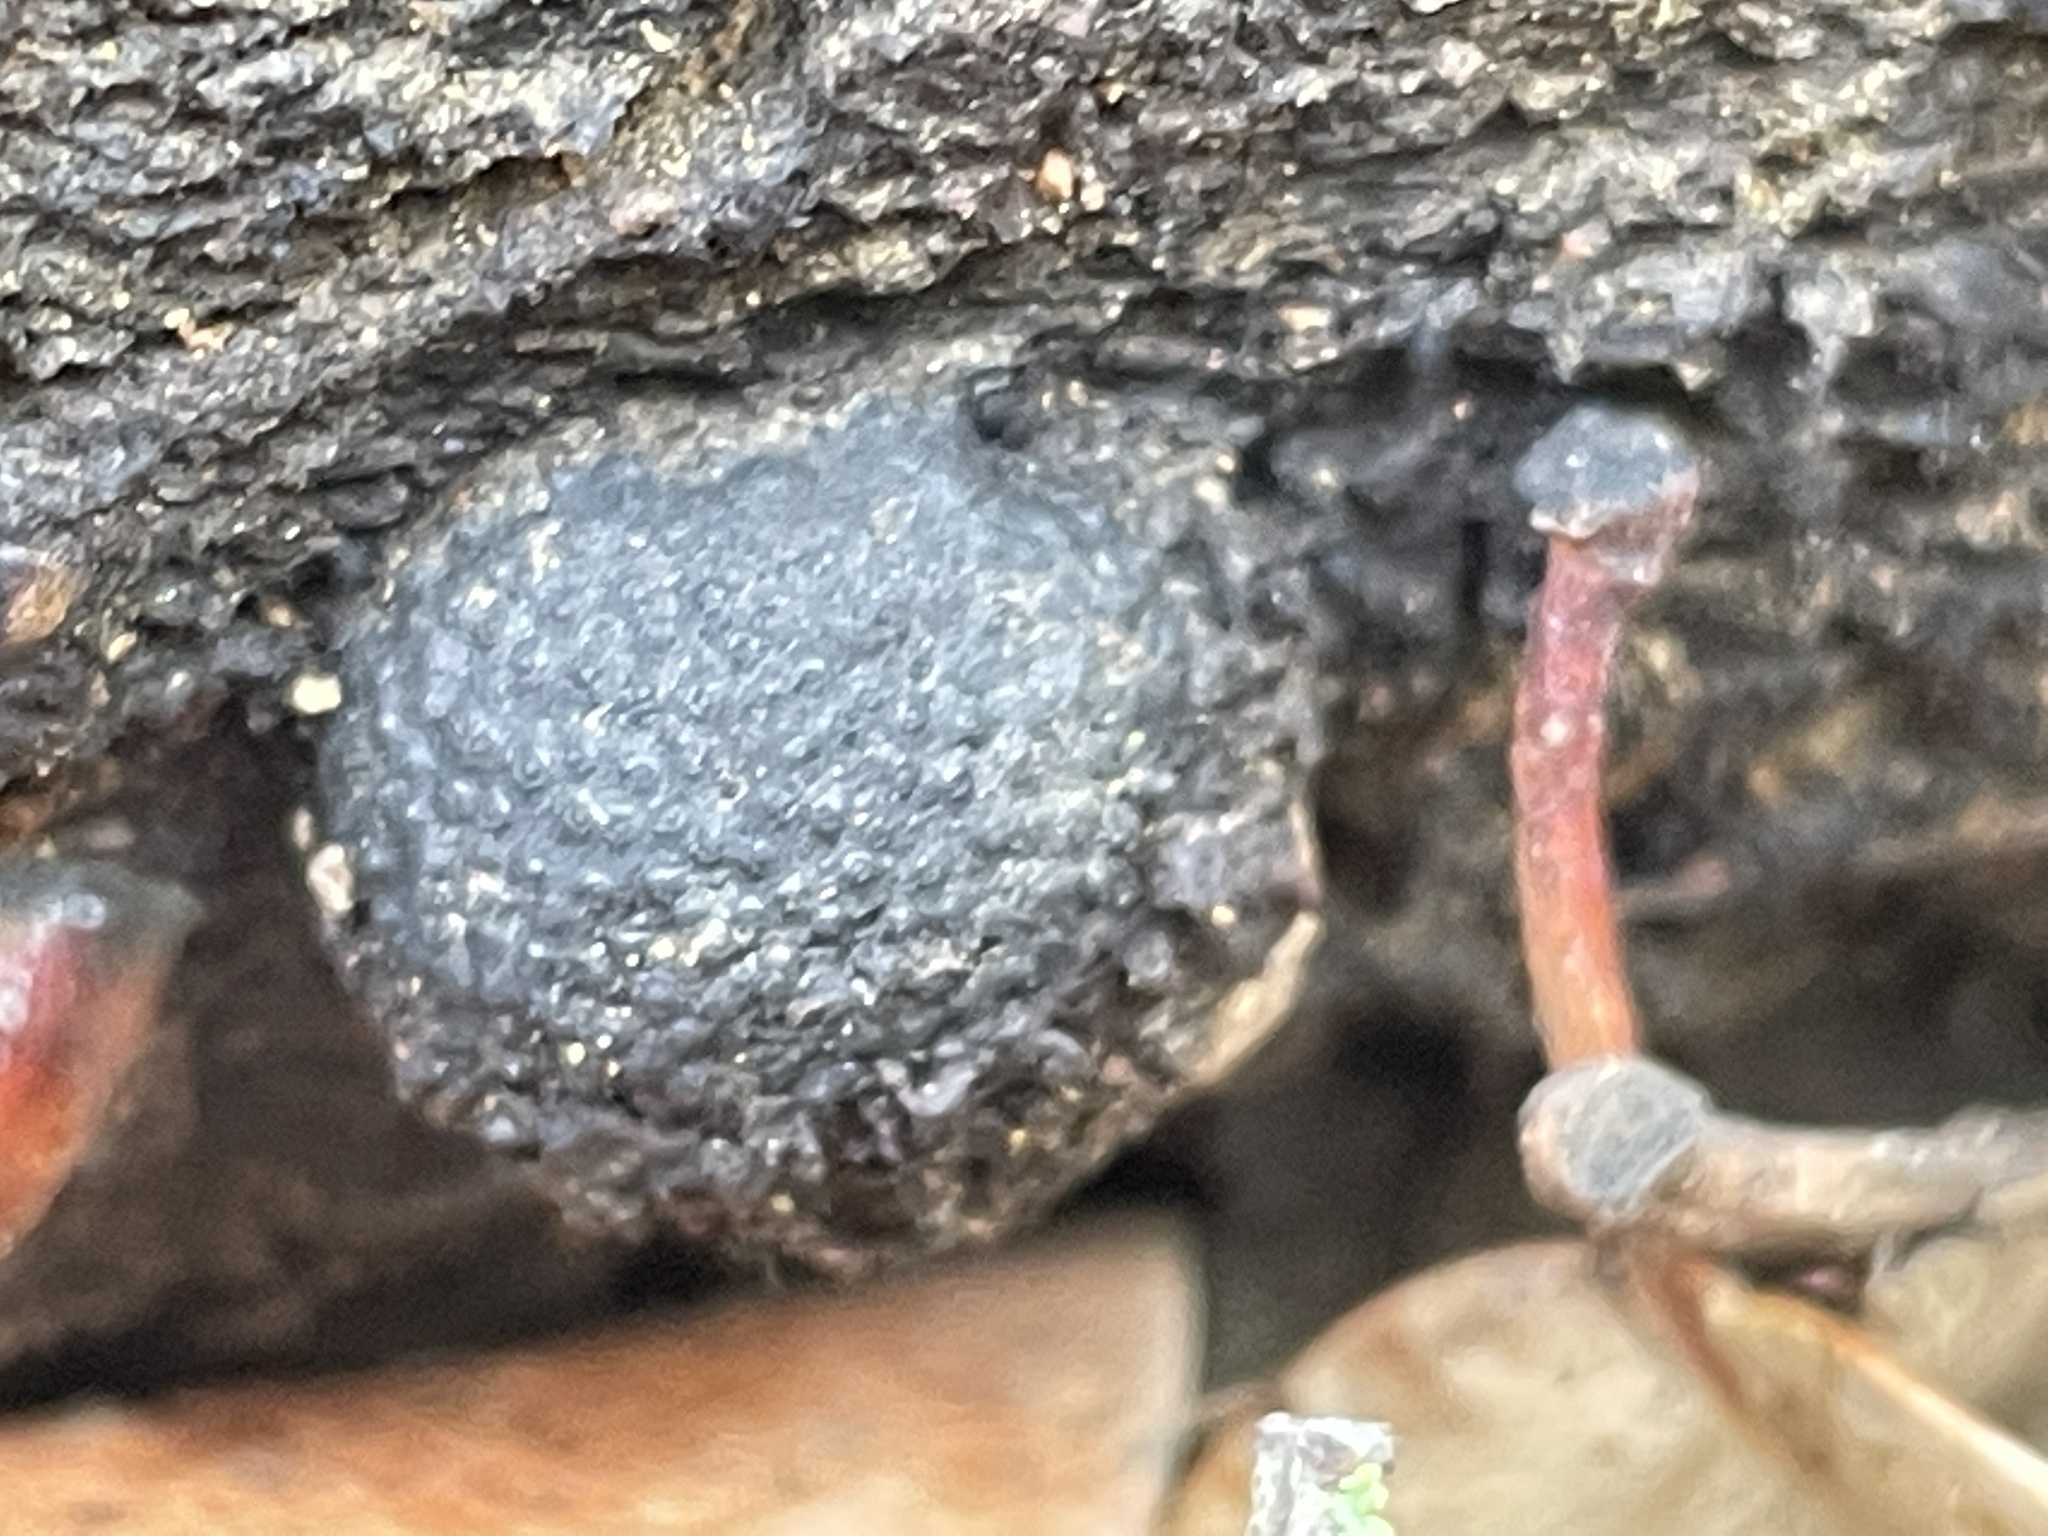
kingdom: Fungi
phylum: Ascomycota
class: Sordariomycetes
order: Xylariales
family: Hypoxylaceae
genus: Annulohypoxylon
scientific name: Annulohypoxylon thouarsianum
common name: Cramp balls
